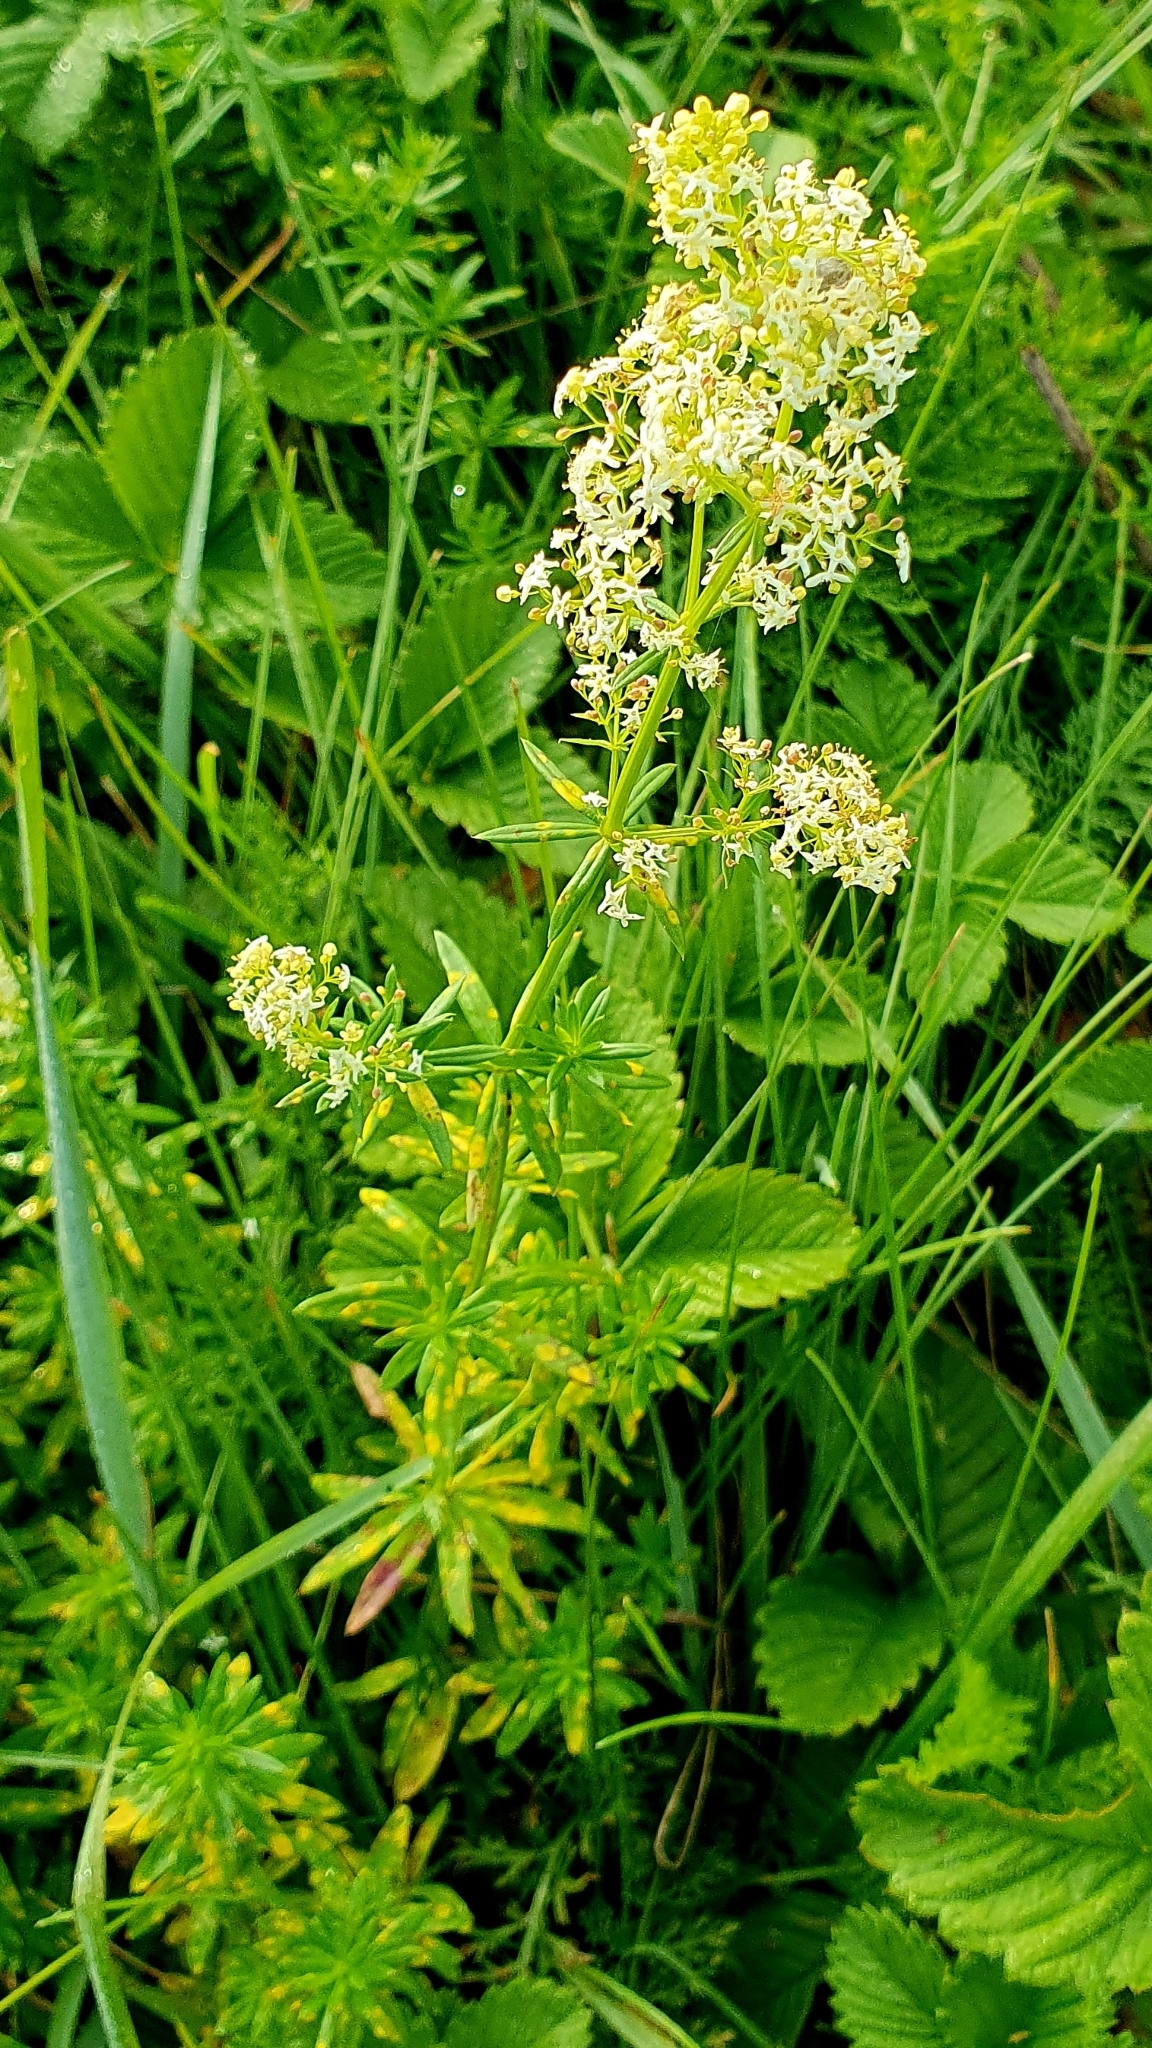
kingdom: Plantae
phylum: Tracheophyta
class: Magnoliopsida
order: Gentianales
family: Rubiaceae
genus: Galium
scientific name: Galium mollugo
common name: Hedge bedstraw
